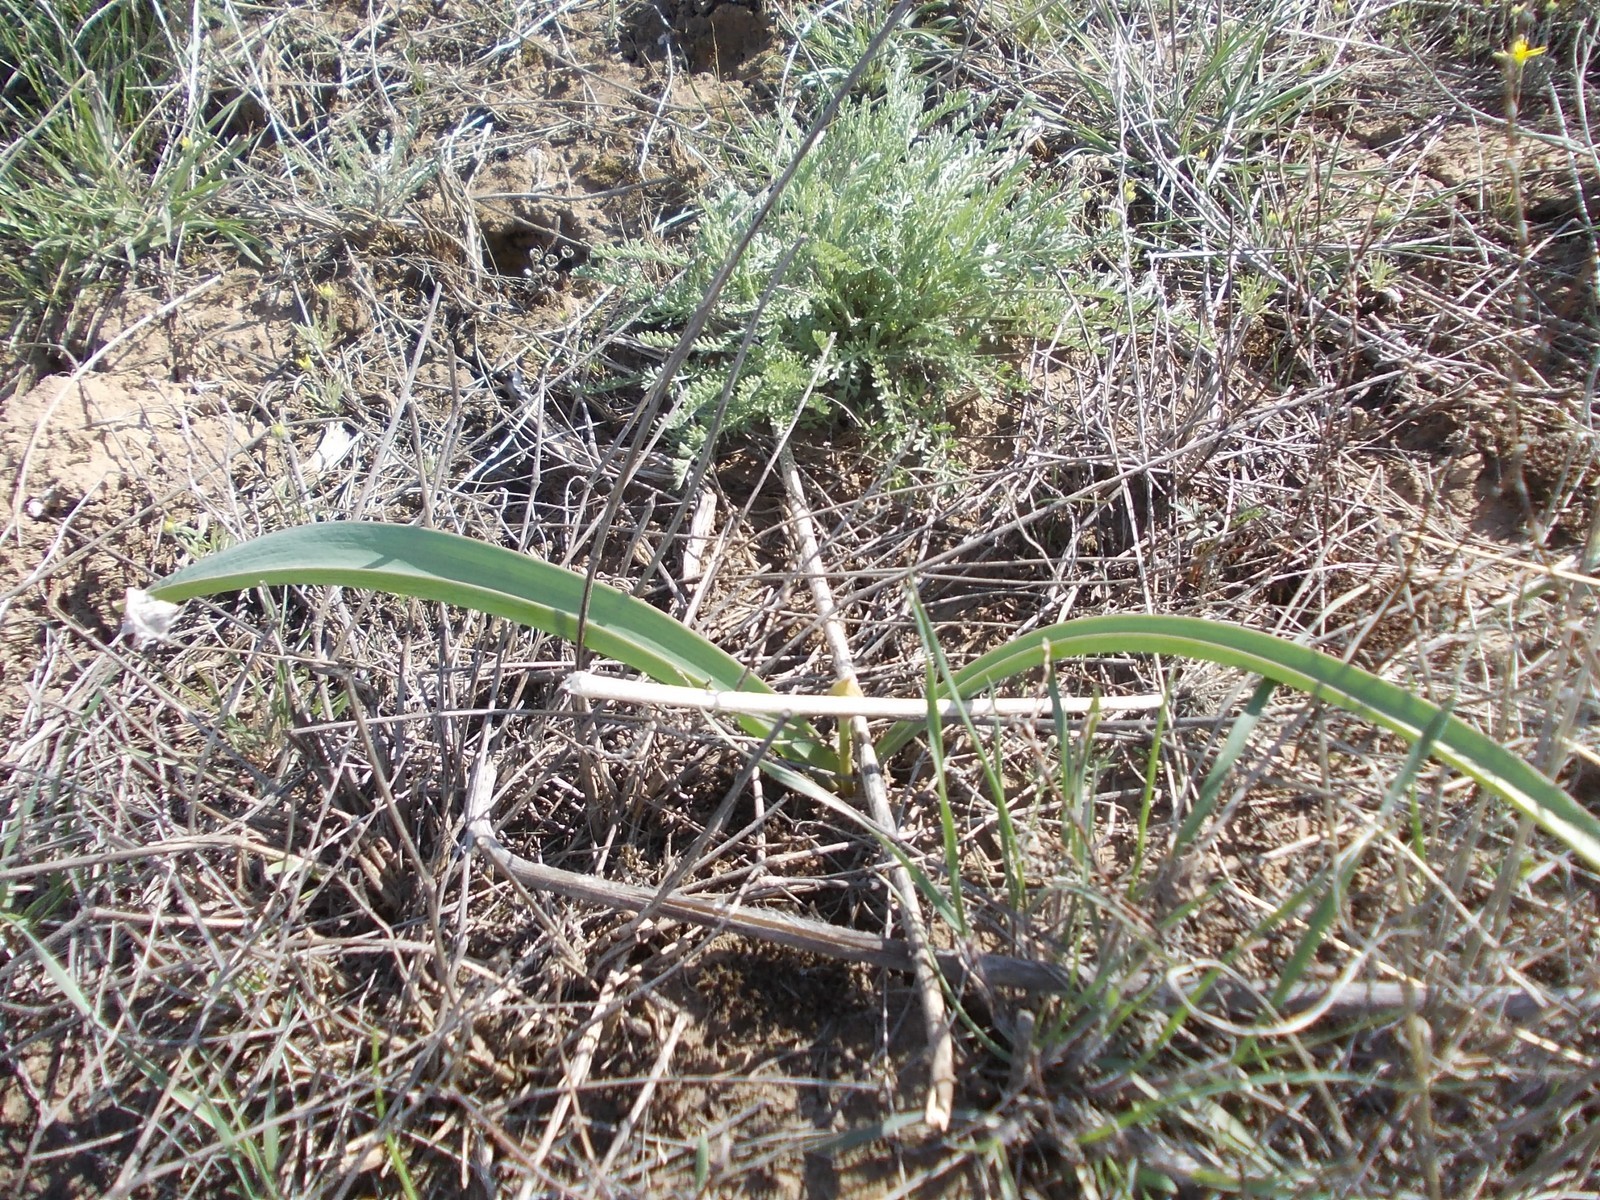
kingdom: Plantae
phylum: Tracheophyta
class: Liliopsida
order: Asparagales
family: Amaryllidaceae
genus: Allium
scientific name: Allium tulipifolium
